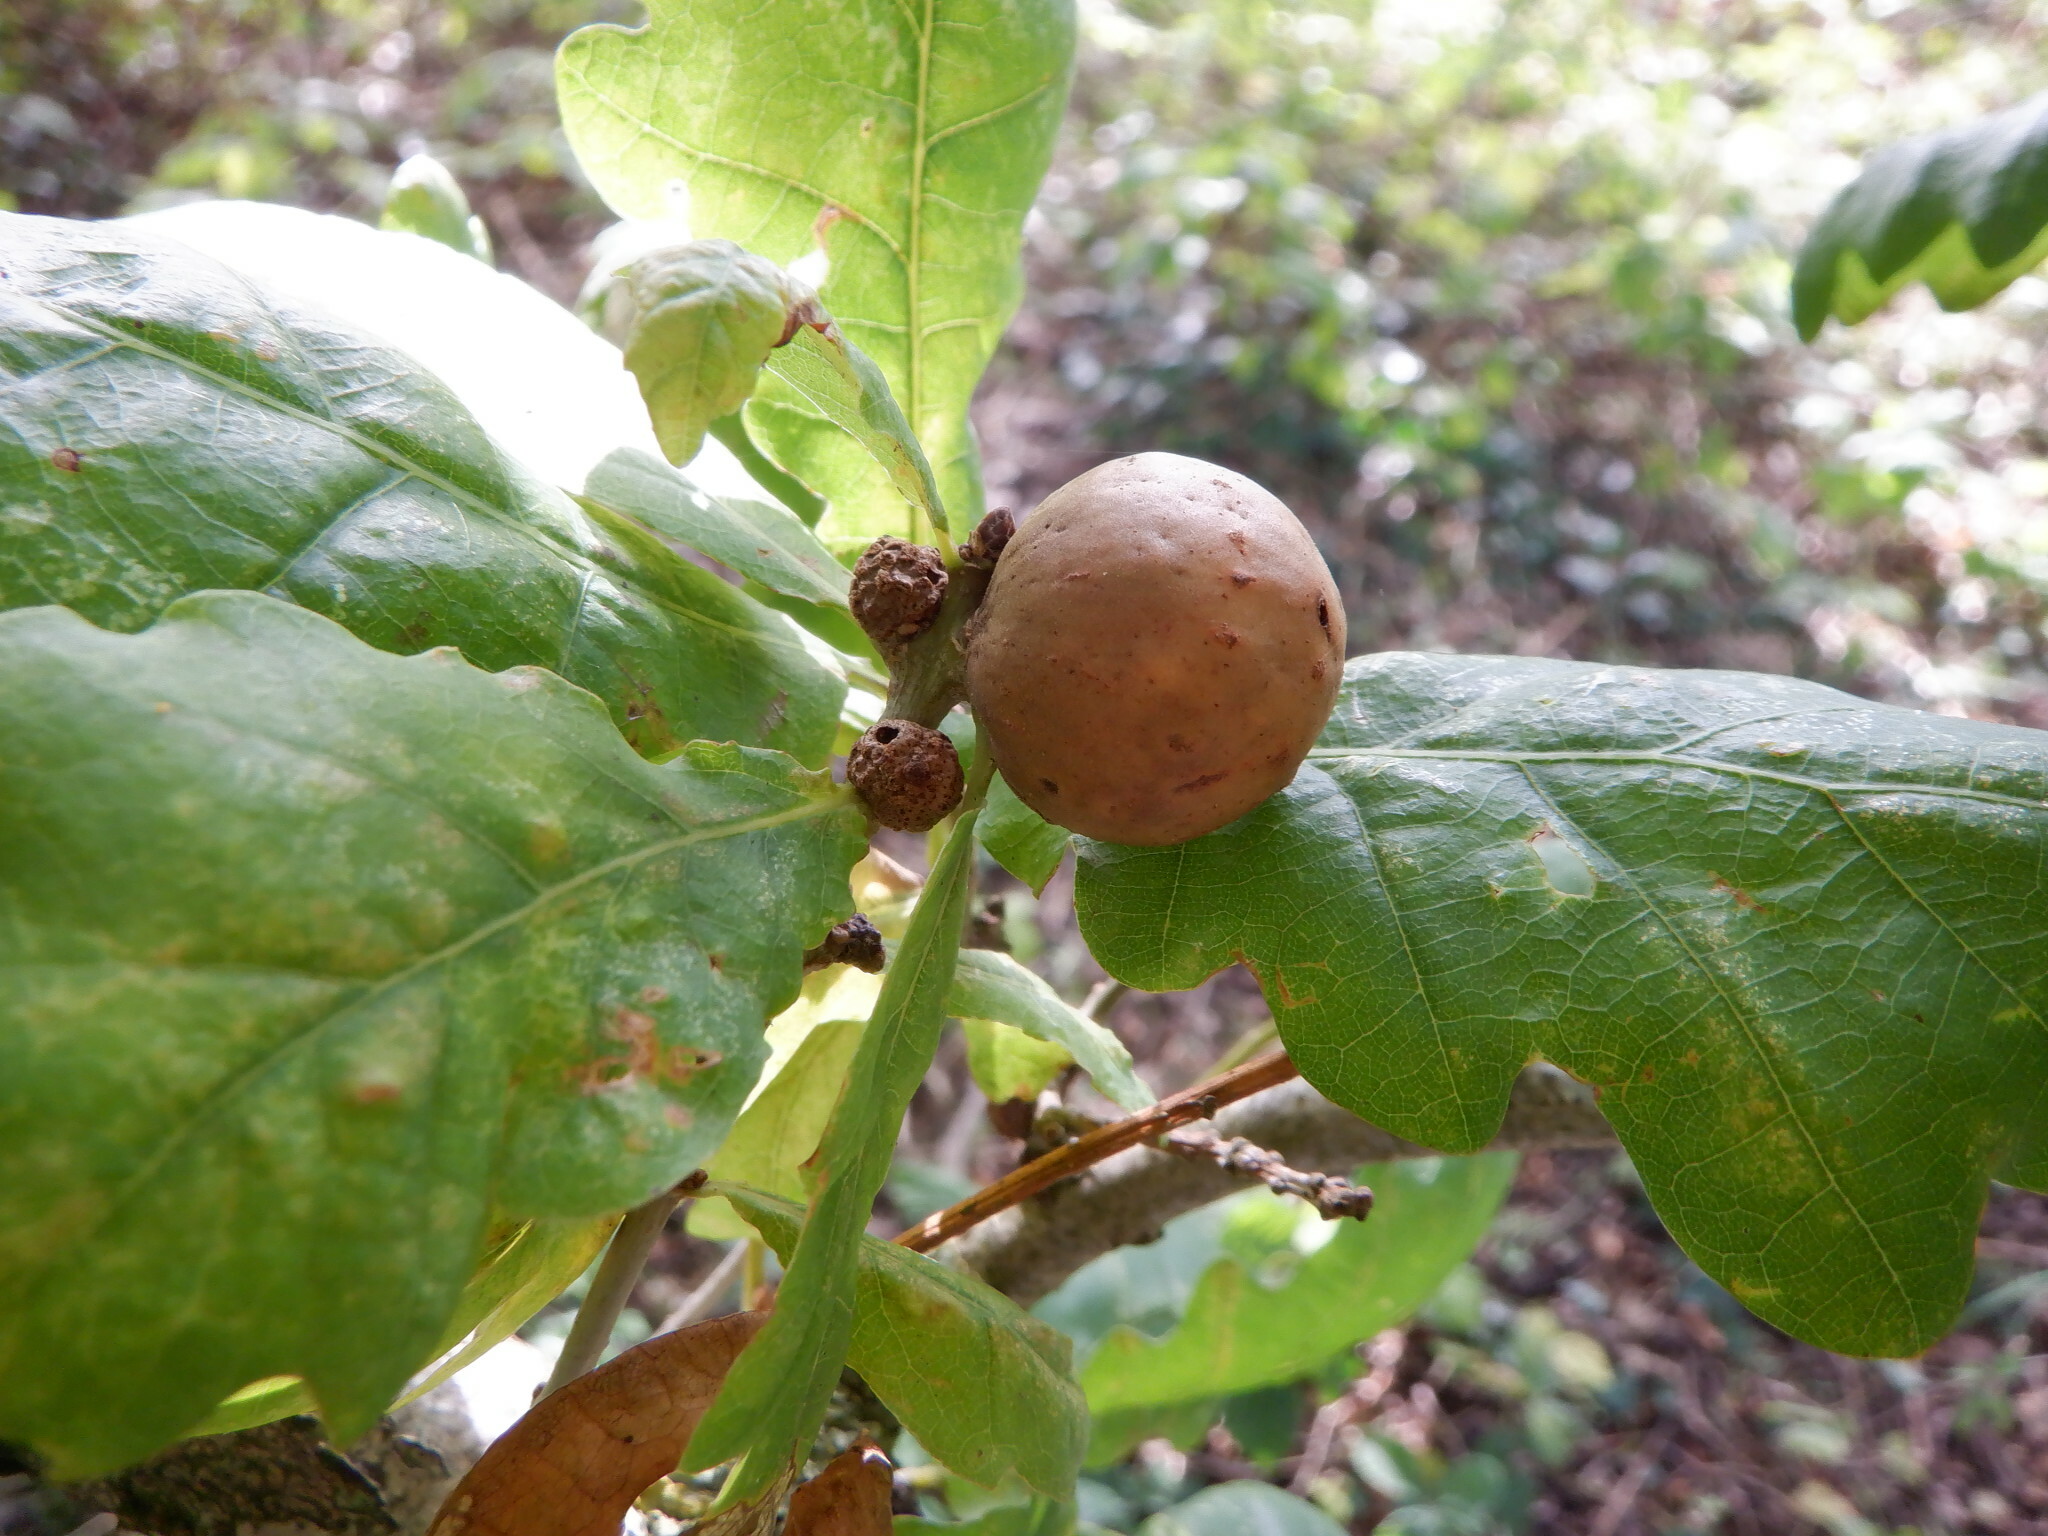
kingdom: Animalia
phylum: Arthropoda
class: Insecta
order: Hymenoptera
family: Cynipidae
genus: Andricus
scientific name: Andricus kollari
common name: Marble gall
